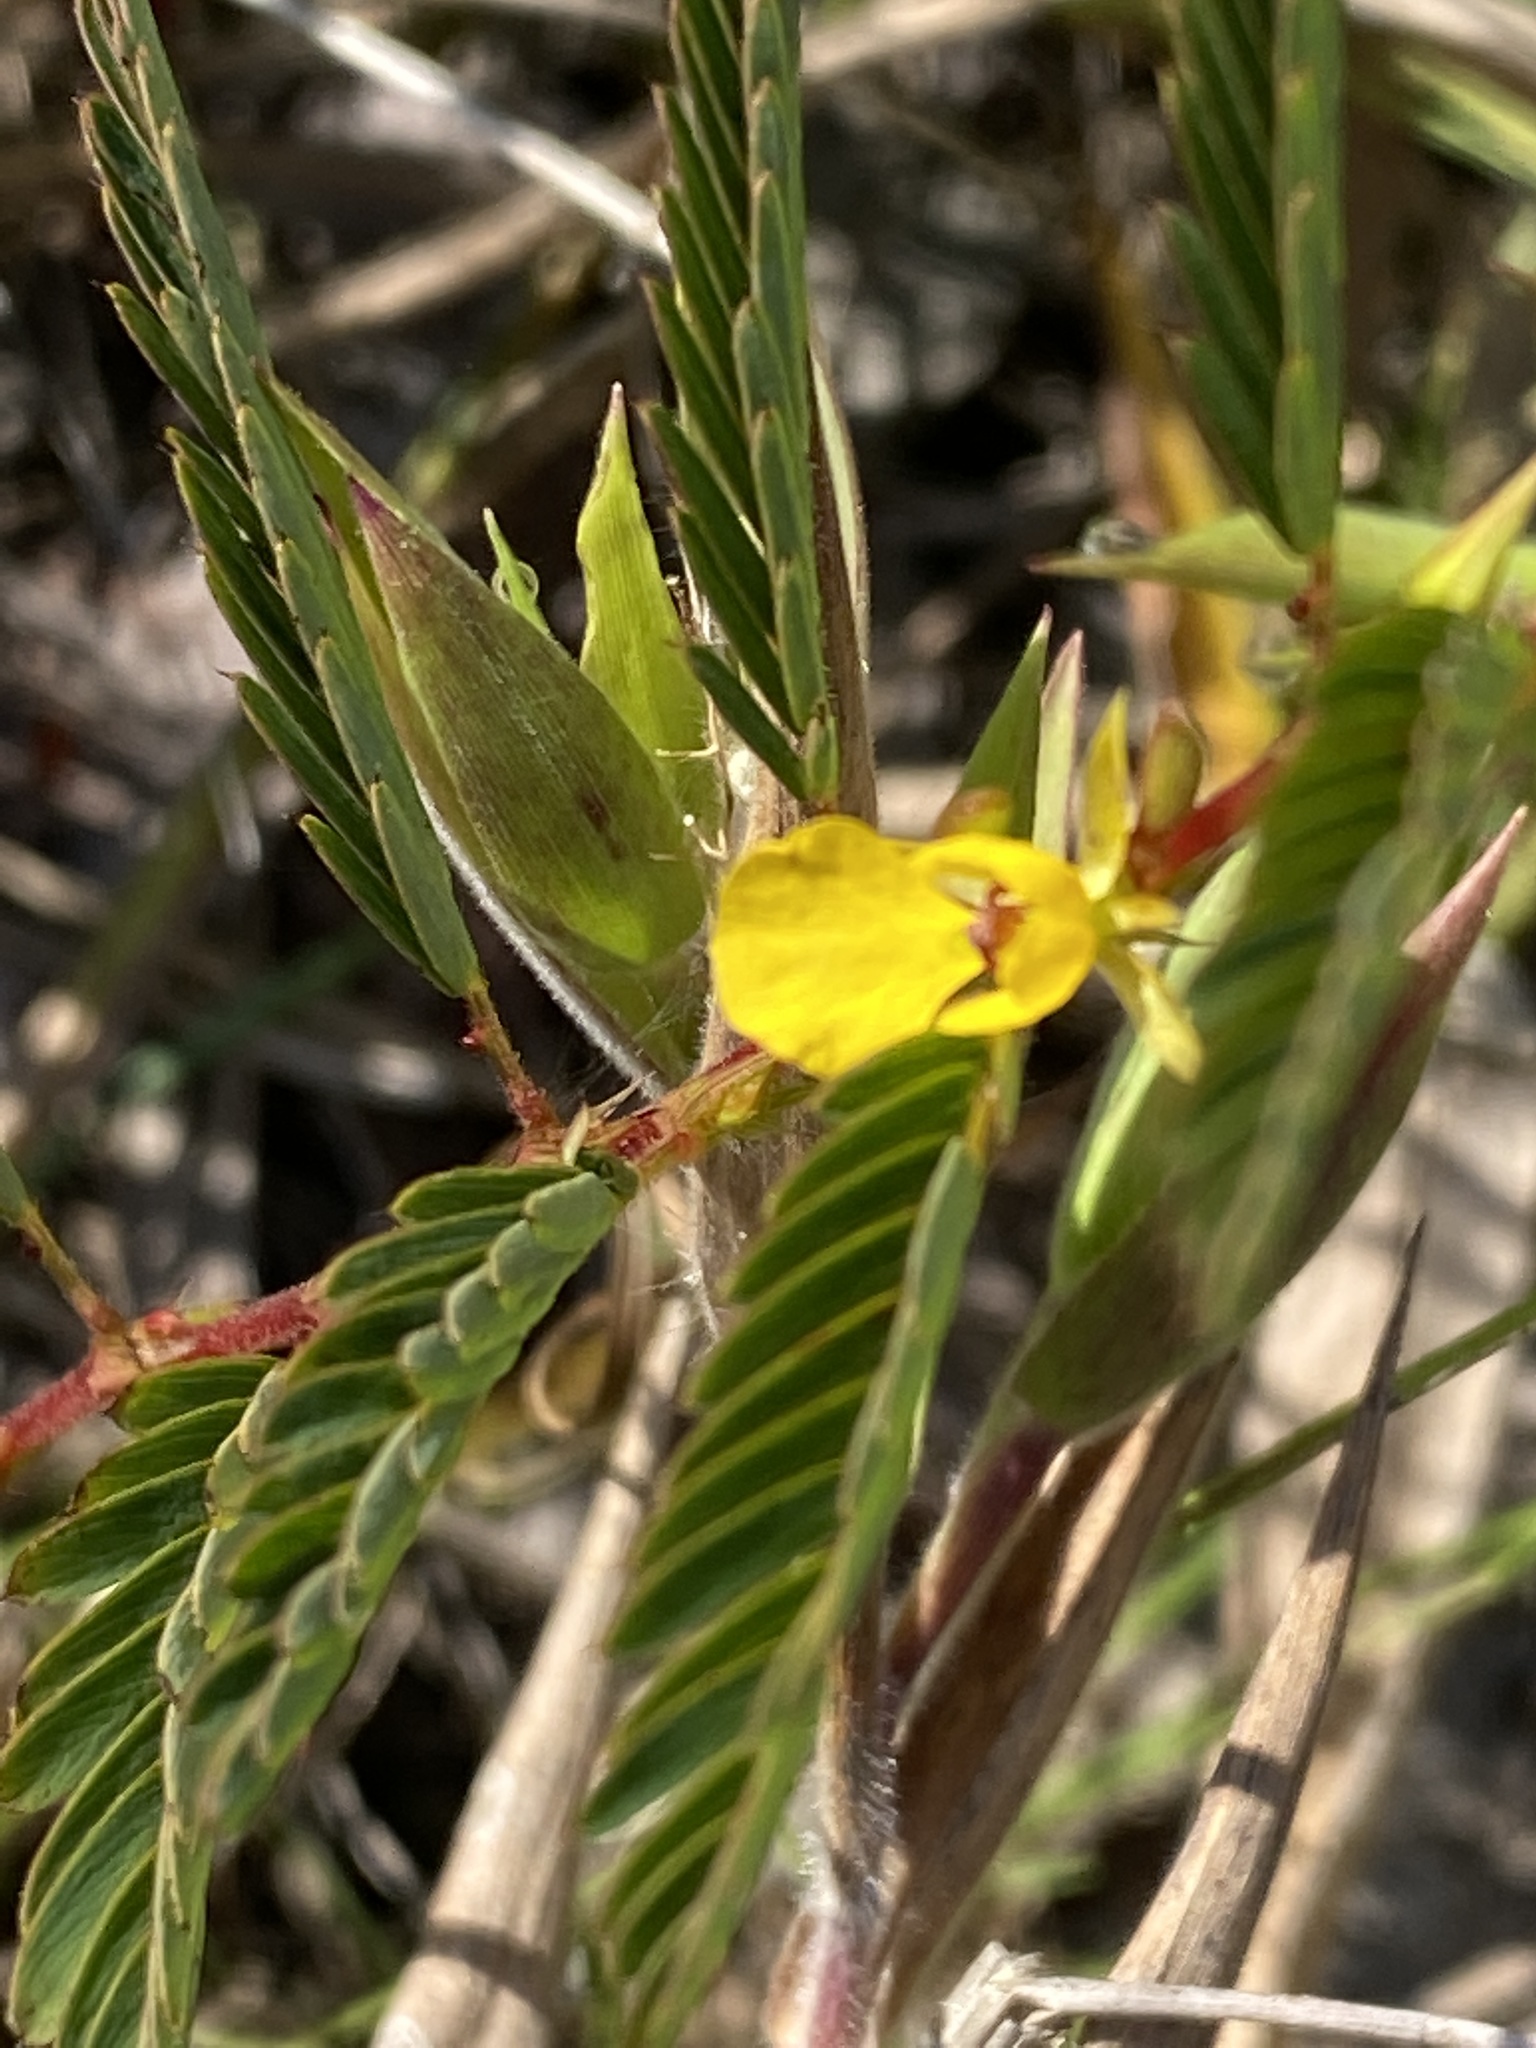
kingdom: Plantae
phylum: Tracheophyta
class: Magnoliopsida
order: Fabales
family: Fabaceae
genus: Chamaecrista
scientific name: Chamaecrista nictitans
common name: Sensitive cassia
